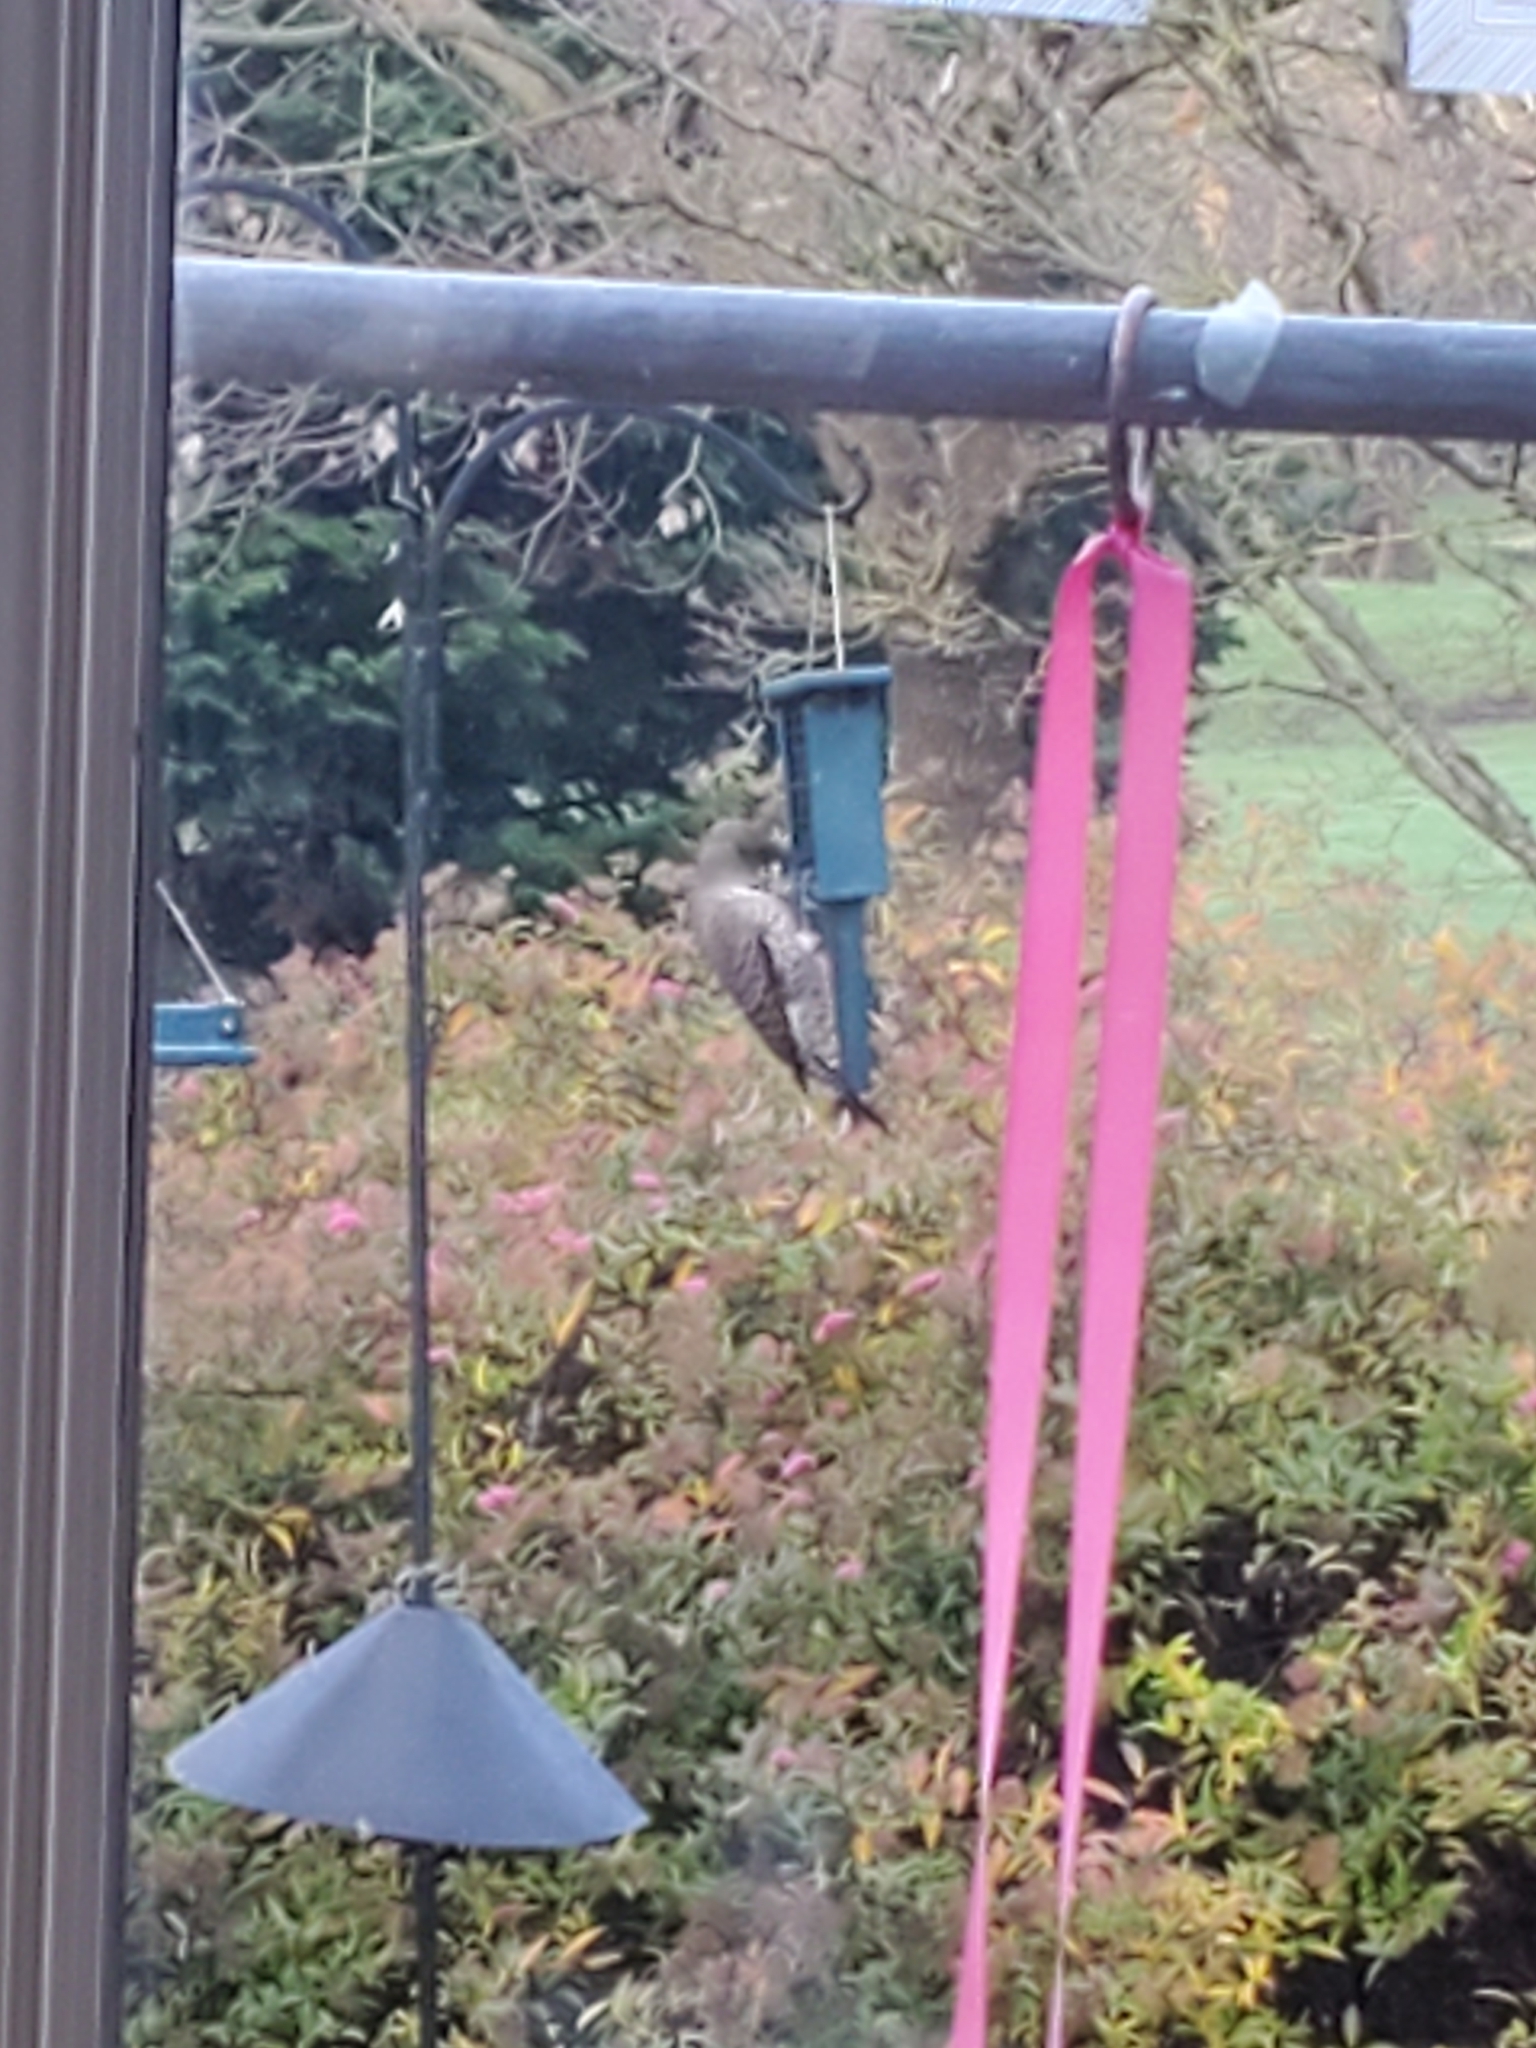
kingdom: Animalia
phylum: Chordata
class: Aves
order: Piciformes
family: Picidae
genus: Colaptes
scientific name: Colaptes auratus
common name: Northern flicker
